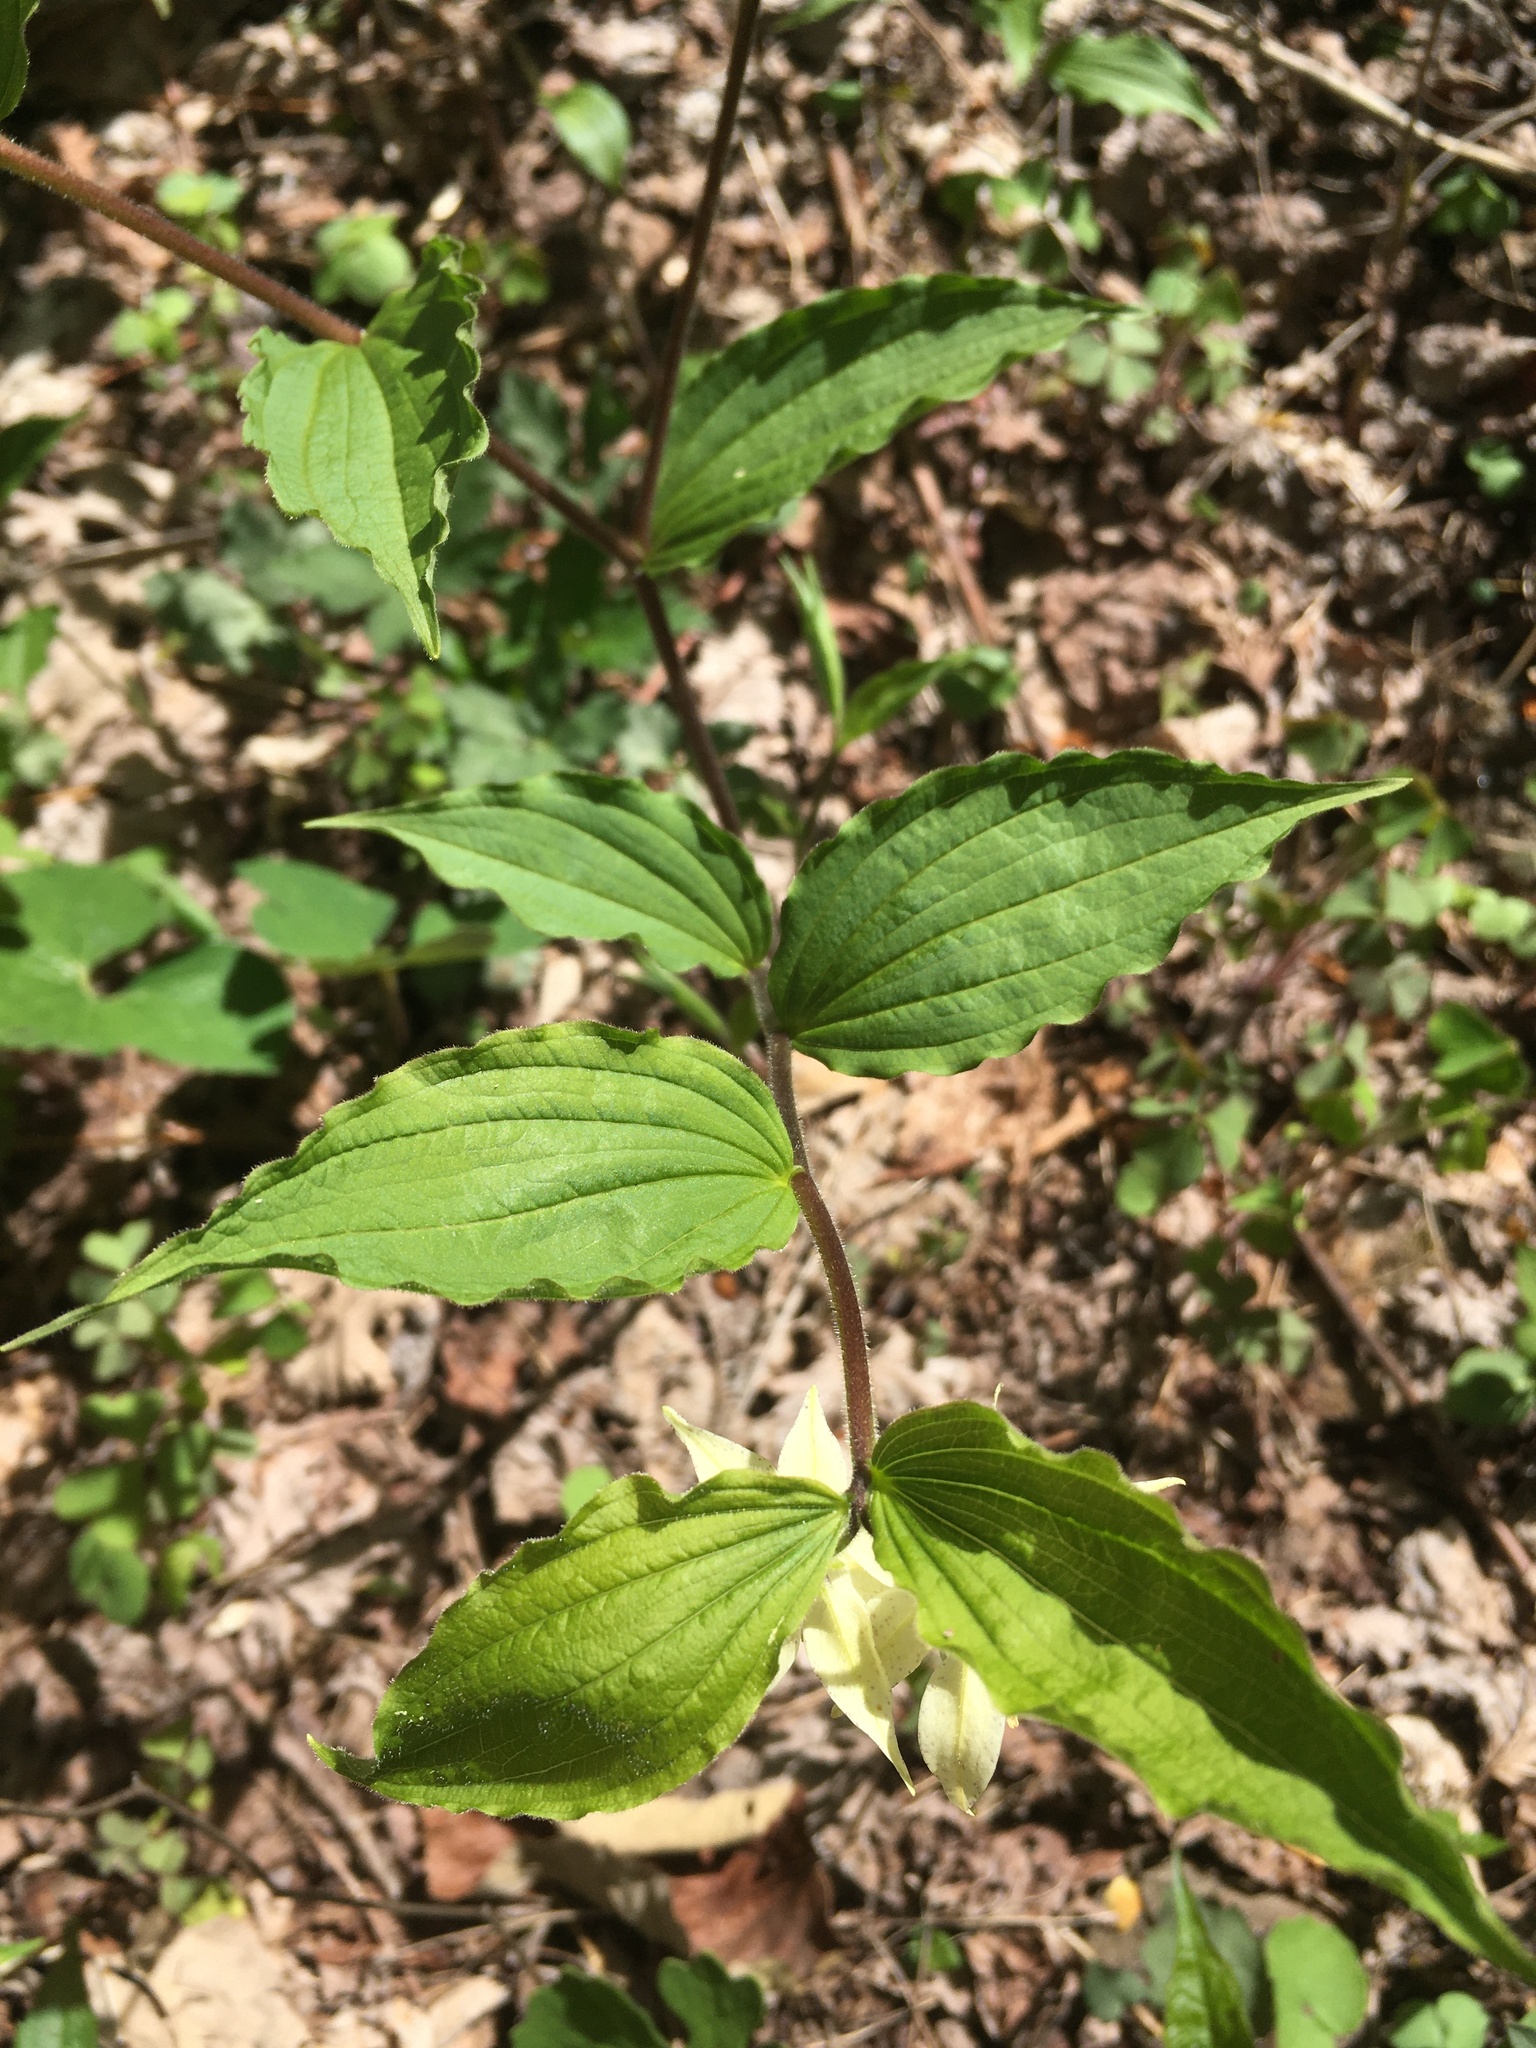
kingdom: Plantae
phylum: Tracheophyta
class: Liliopsida
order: Liliales
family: Liliaceae
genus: Prosartes
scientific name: Prosartes maculata
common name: Yellow mandarin
